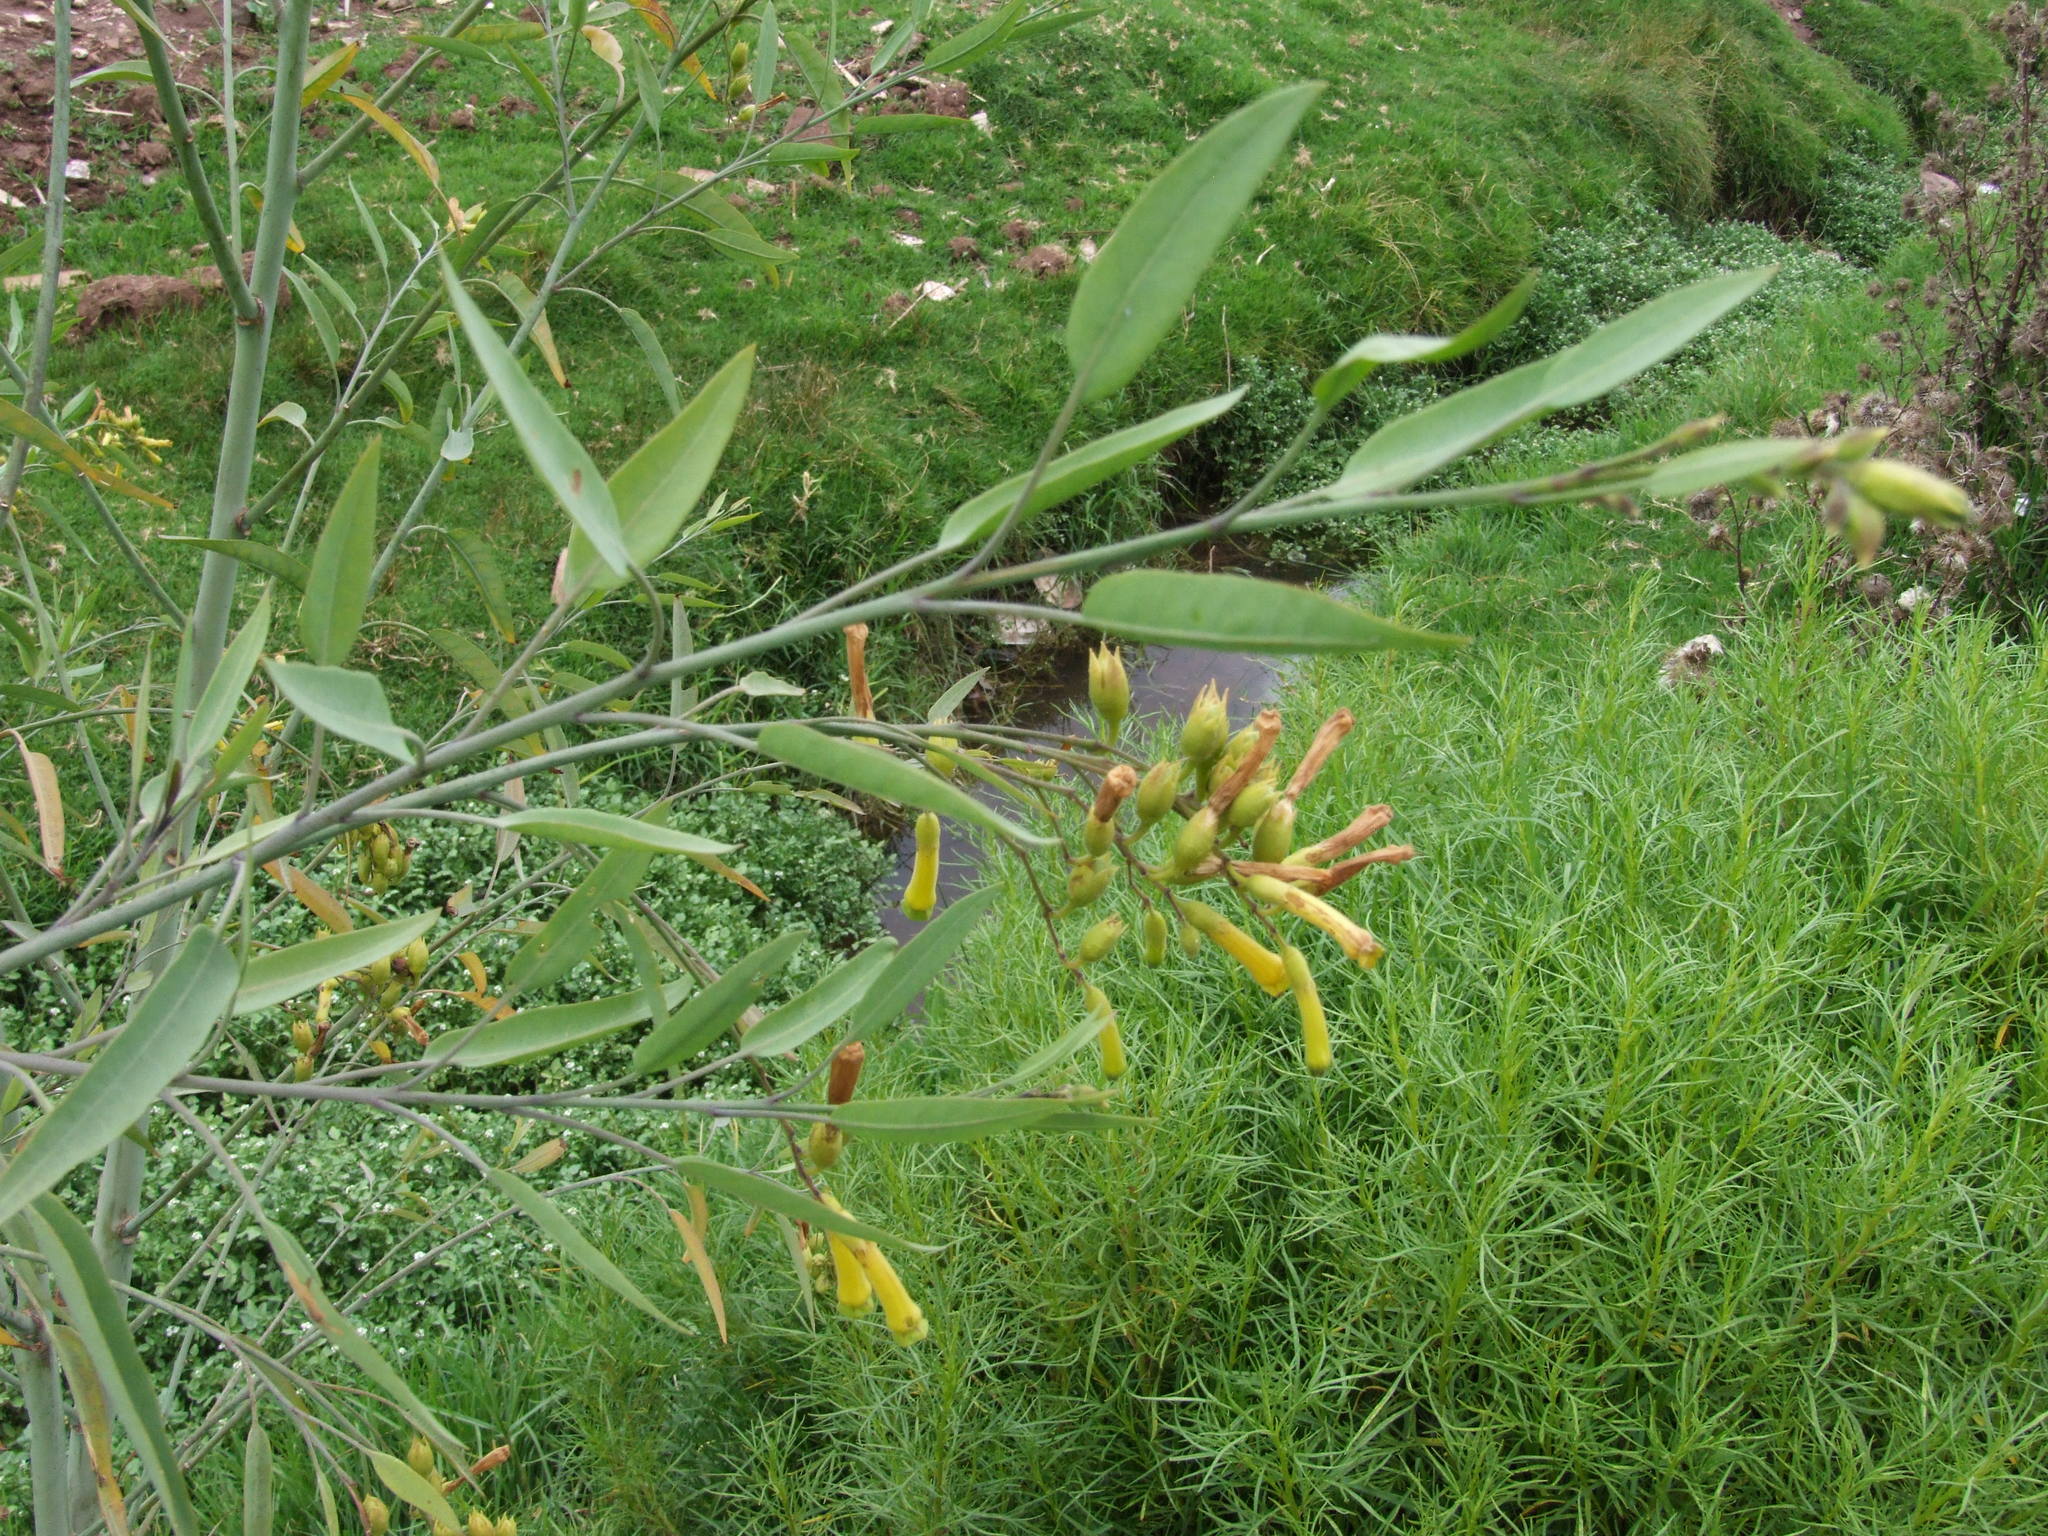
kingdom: Plantae
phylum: Tracheophyta
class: Magnoliopsida
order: Solanales
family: Solanaceae
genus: Nicotiana
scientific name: Nicotiana glauca
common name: Tree tobacco
